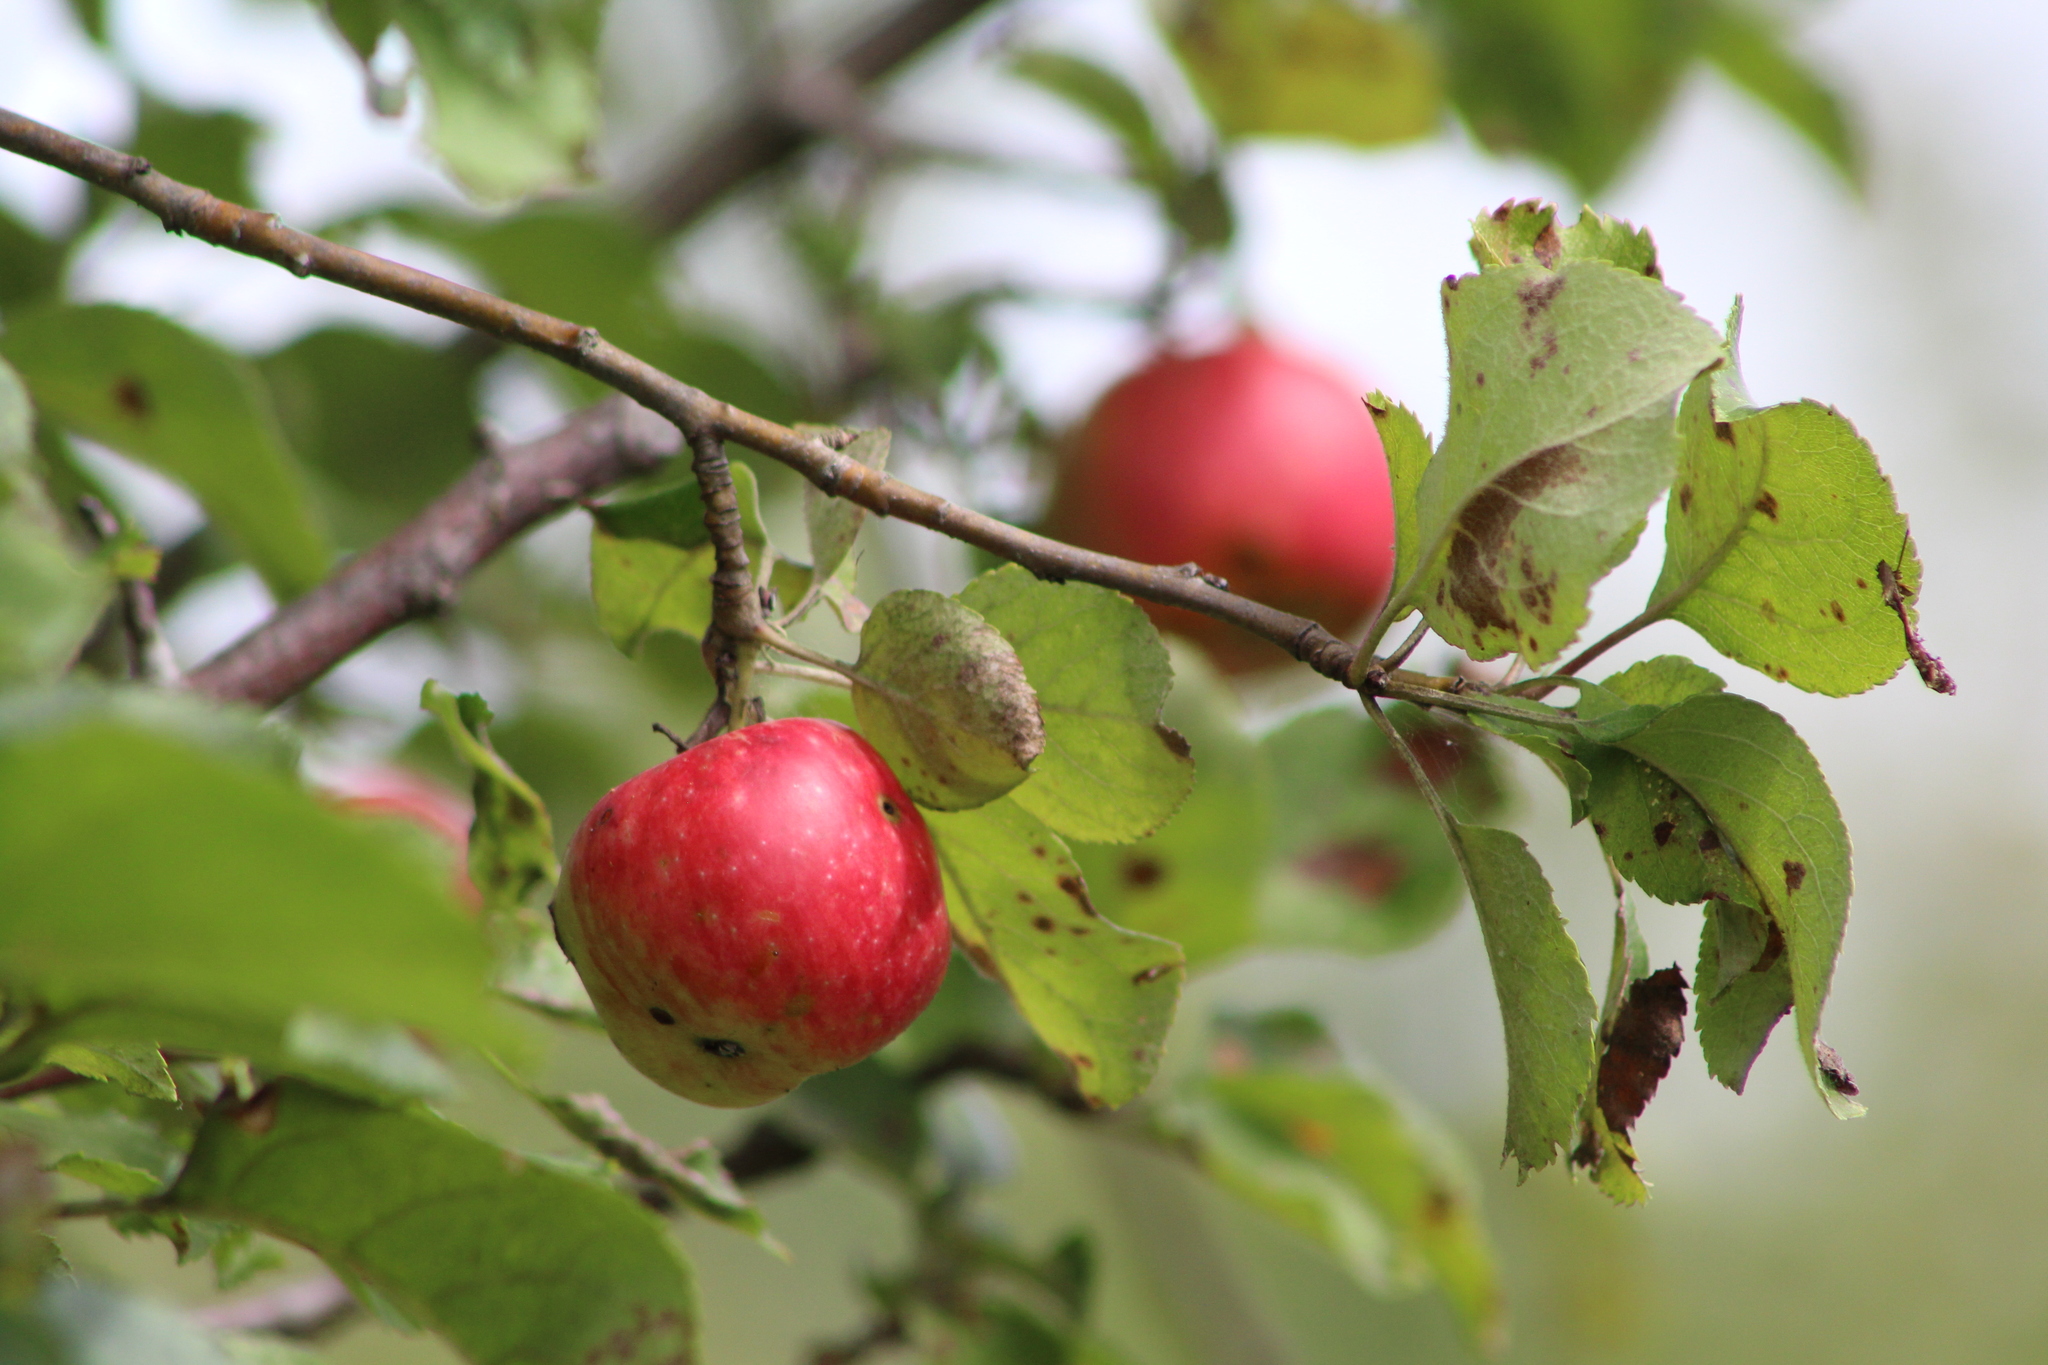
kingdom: Plantae
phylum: Tracheophyta
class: Magnoliopsida
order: Rosales
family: Rosaceae
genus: Malus
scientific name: Malus domestica
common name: Apple
